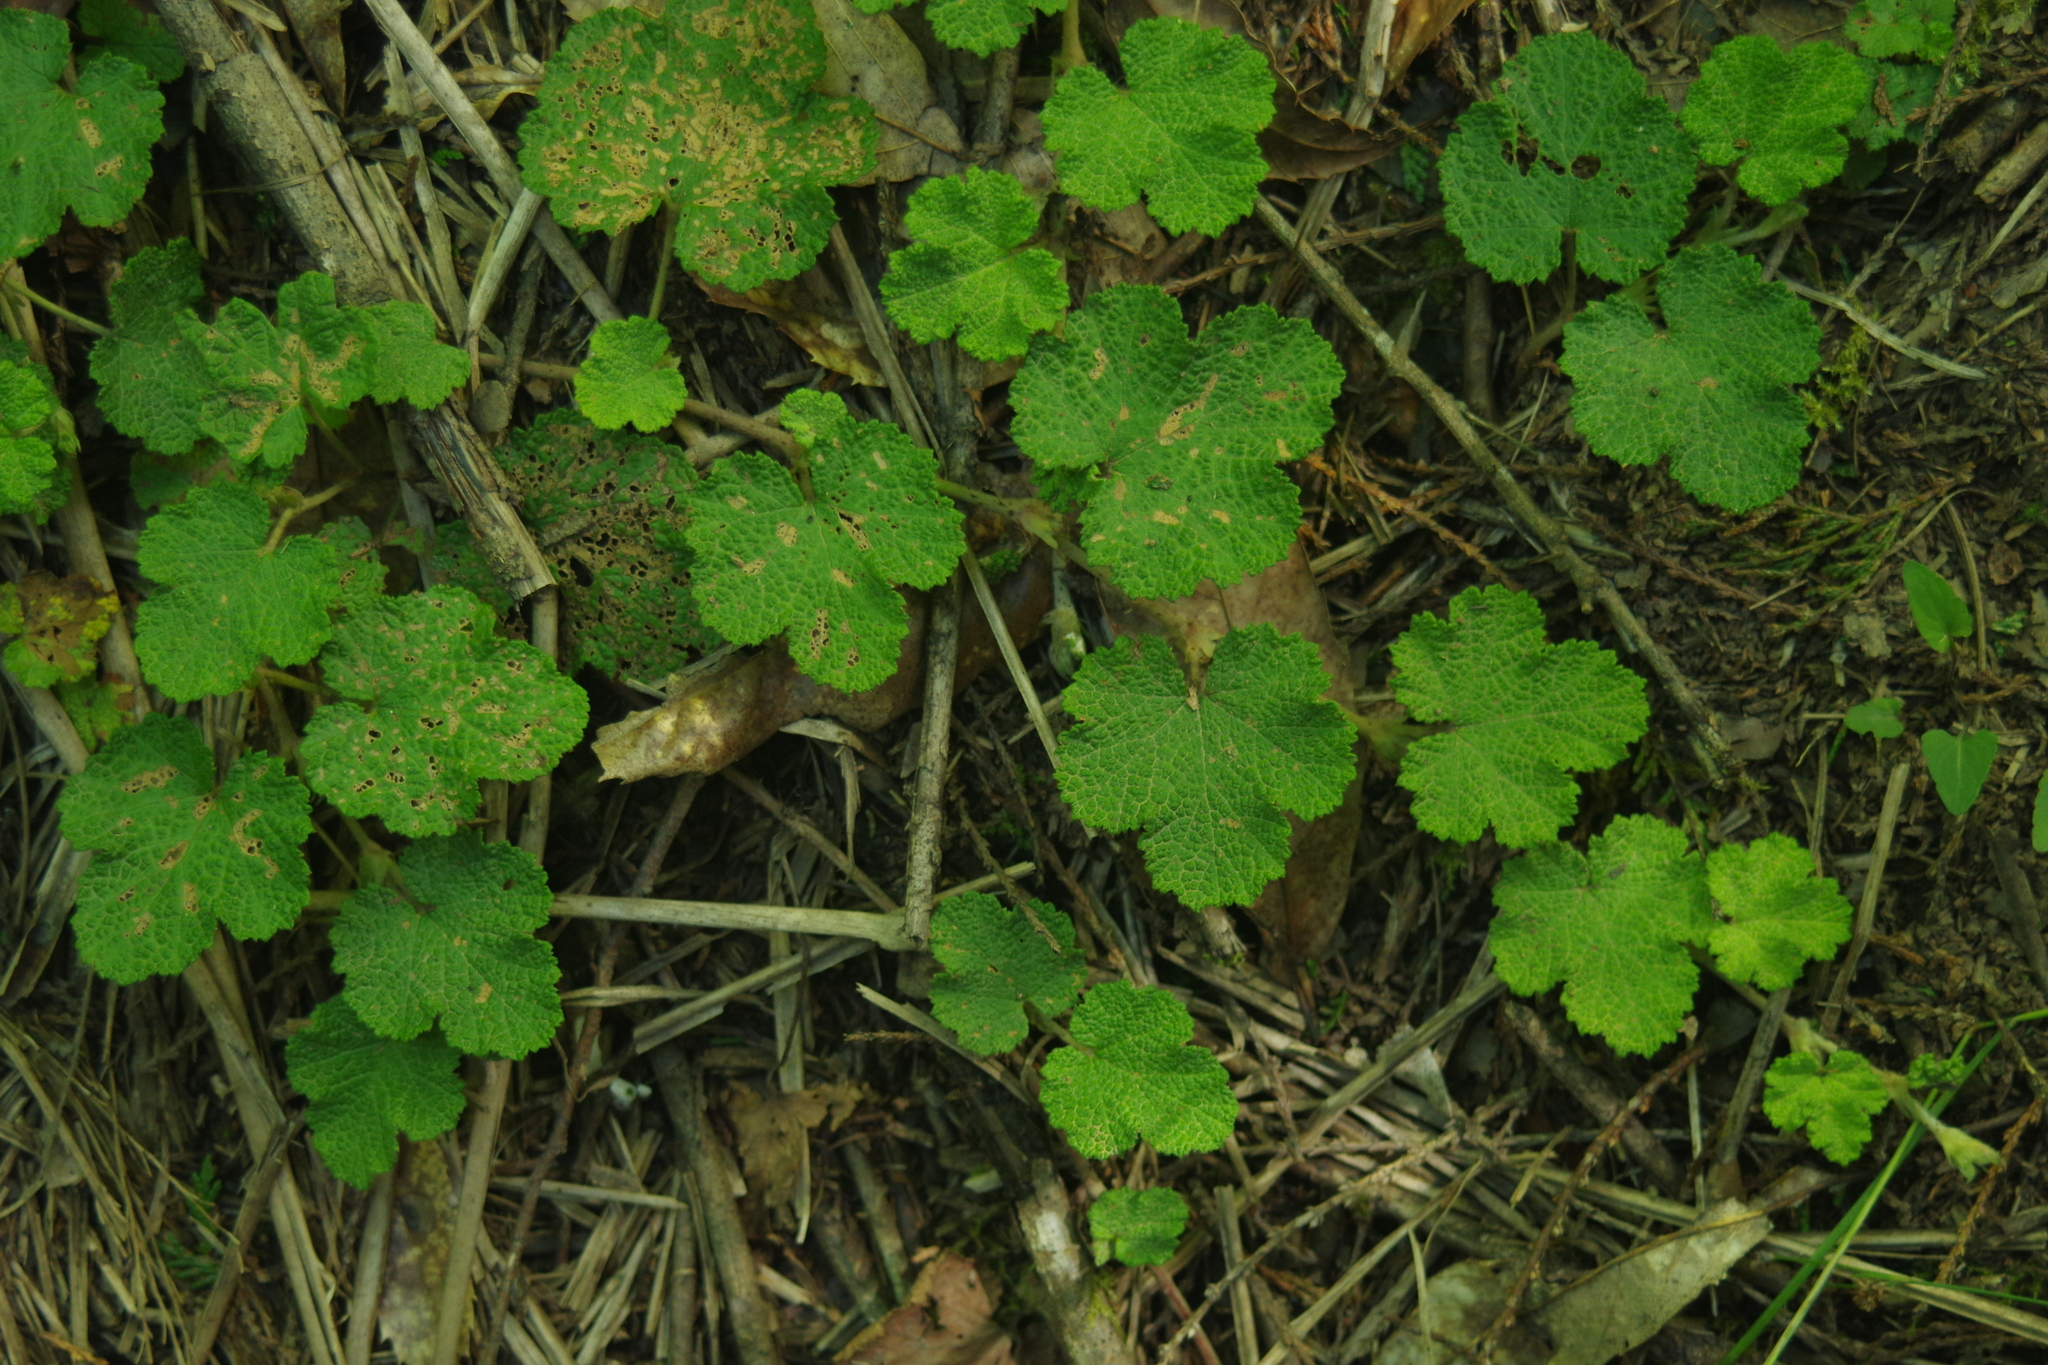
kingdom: Plantae
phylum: Tracheophyta
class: Magnoliopsida
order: Rosales
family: Rosaceae
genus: Rubus
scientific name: Rubus rolfei
